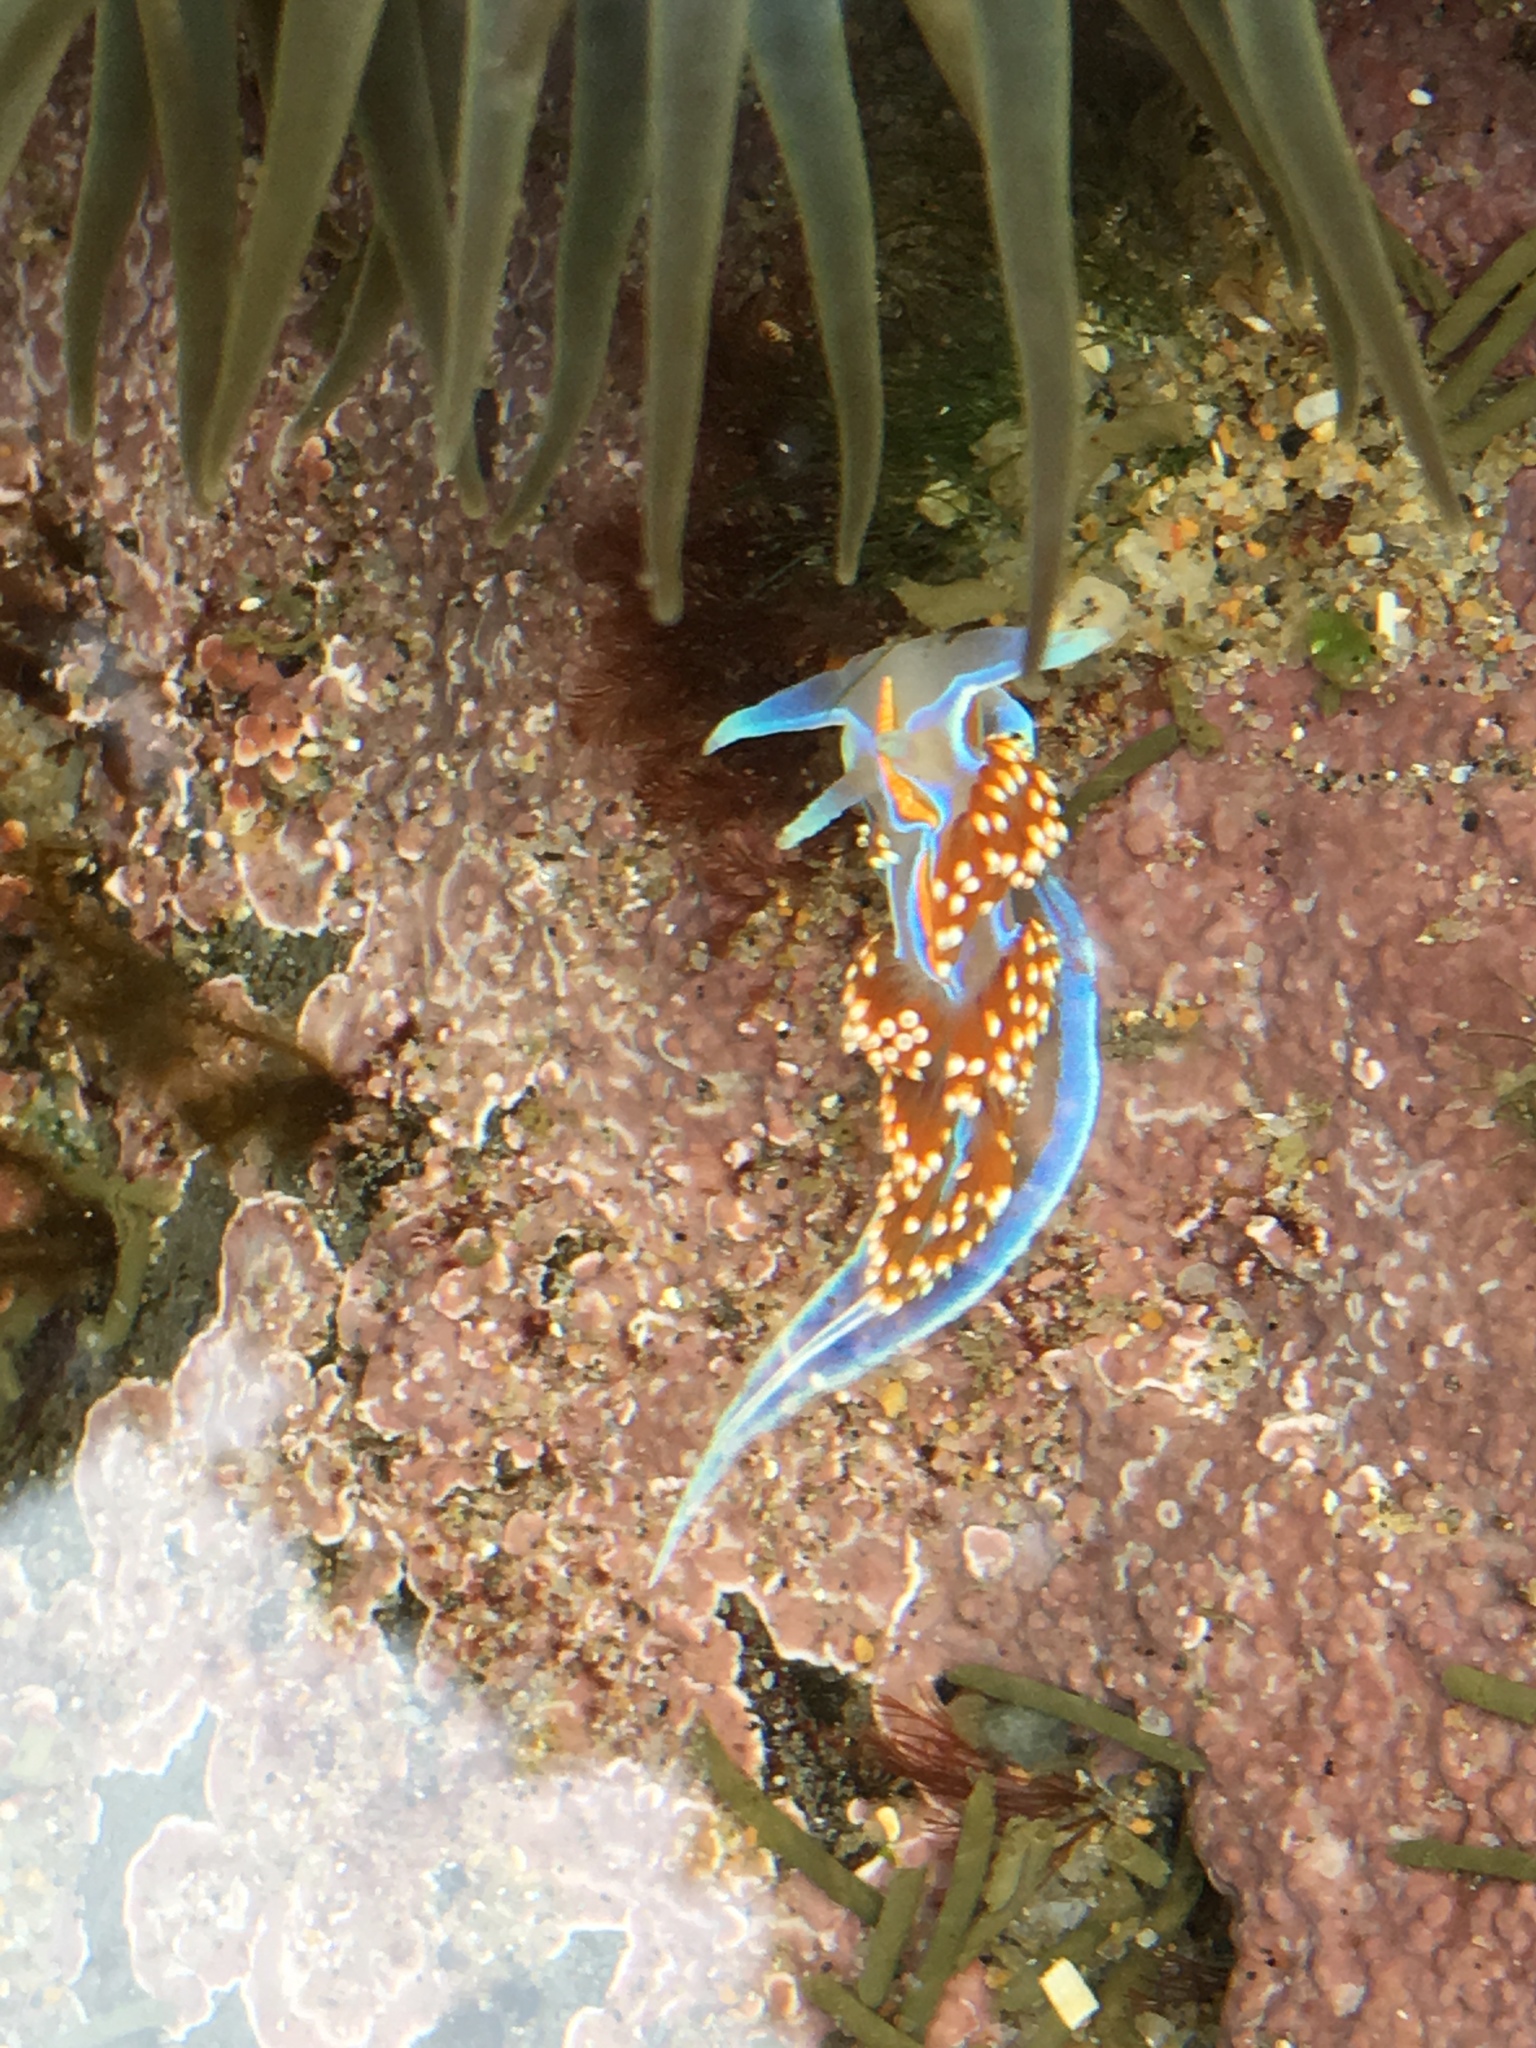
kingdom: Animalia
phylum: Mollusca
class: Gastropoda
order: Nudibranchia
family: Myrrhinidae
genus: Hermissenda
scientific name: Hermissenda opalescens
